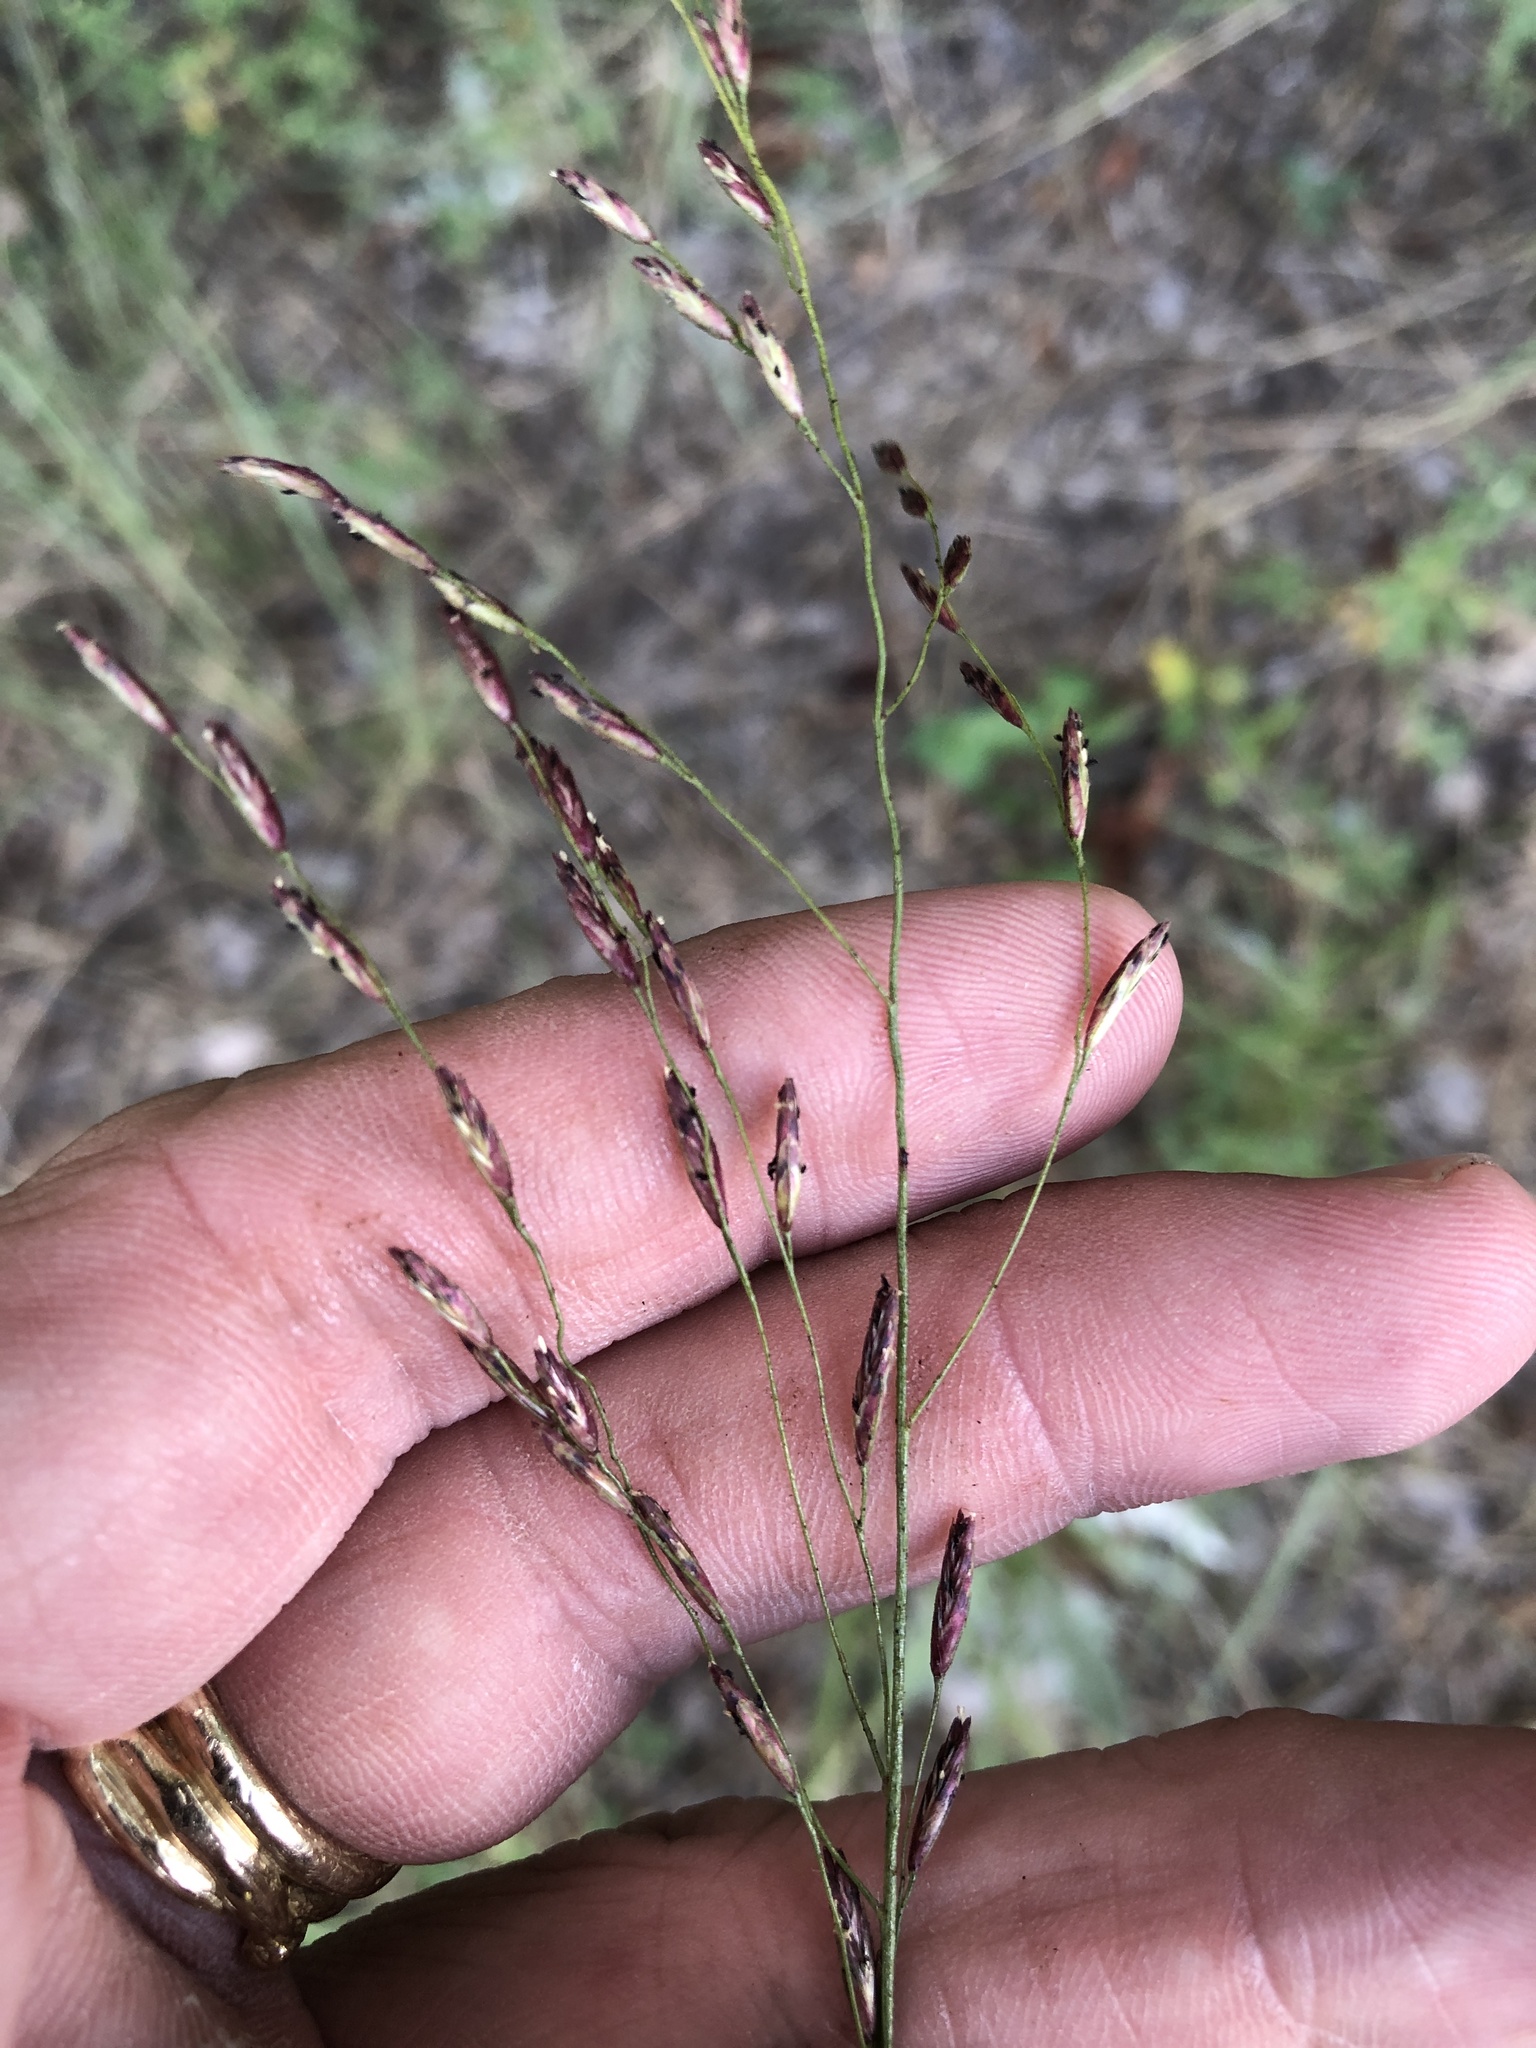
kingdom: Plantae
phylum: Tracheophyta
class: Liliopsida
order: Poales
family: Poaceae
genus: Tridens
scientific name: Tridens flavus
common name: Purpletop
